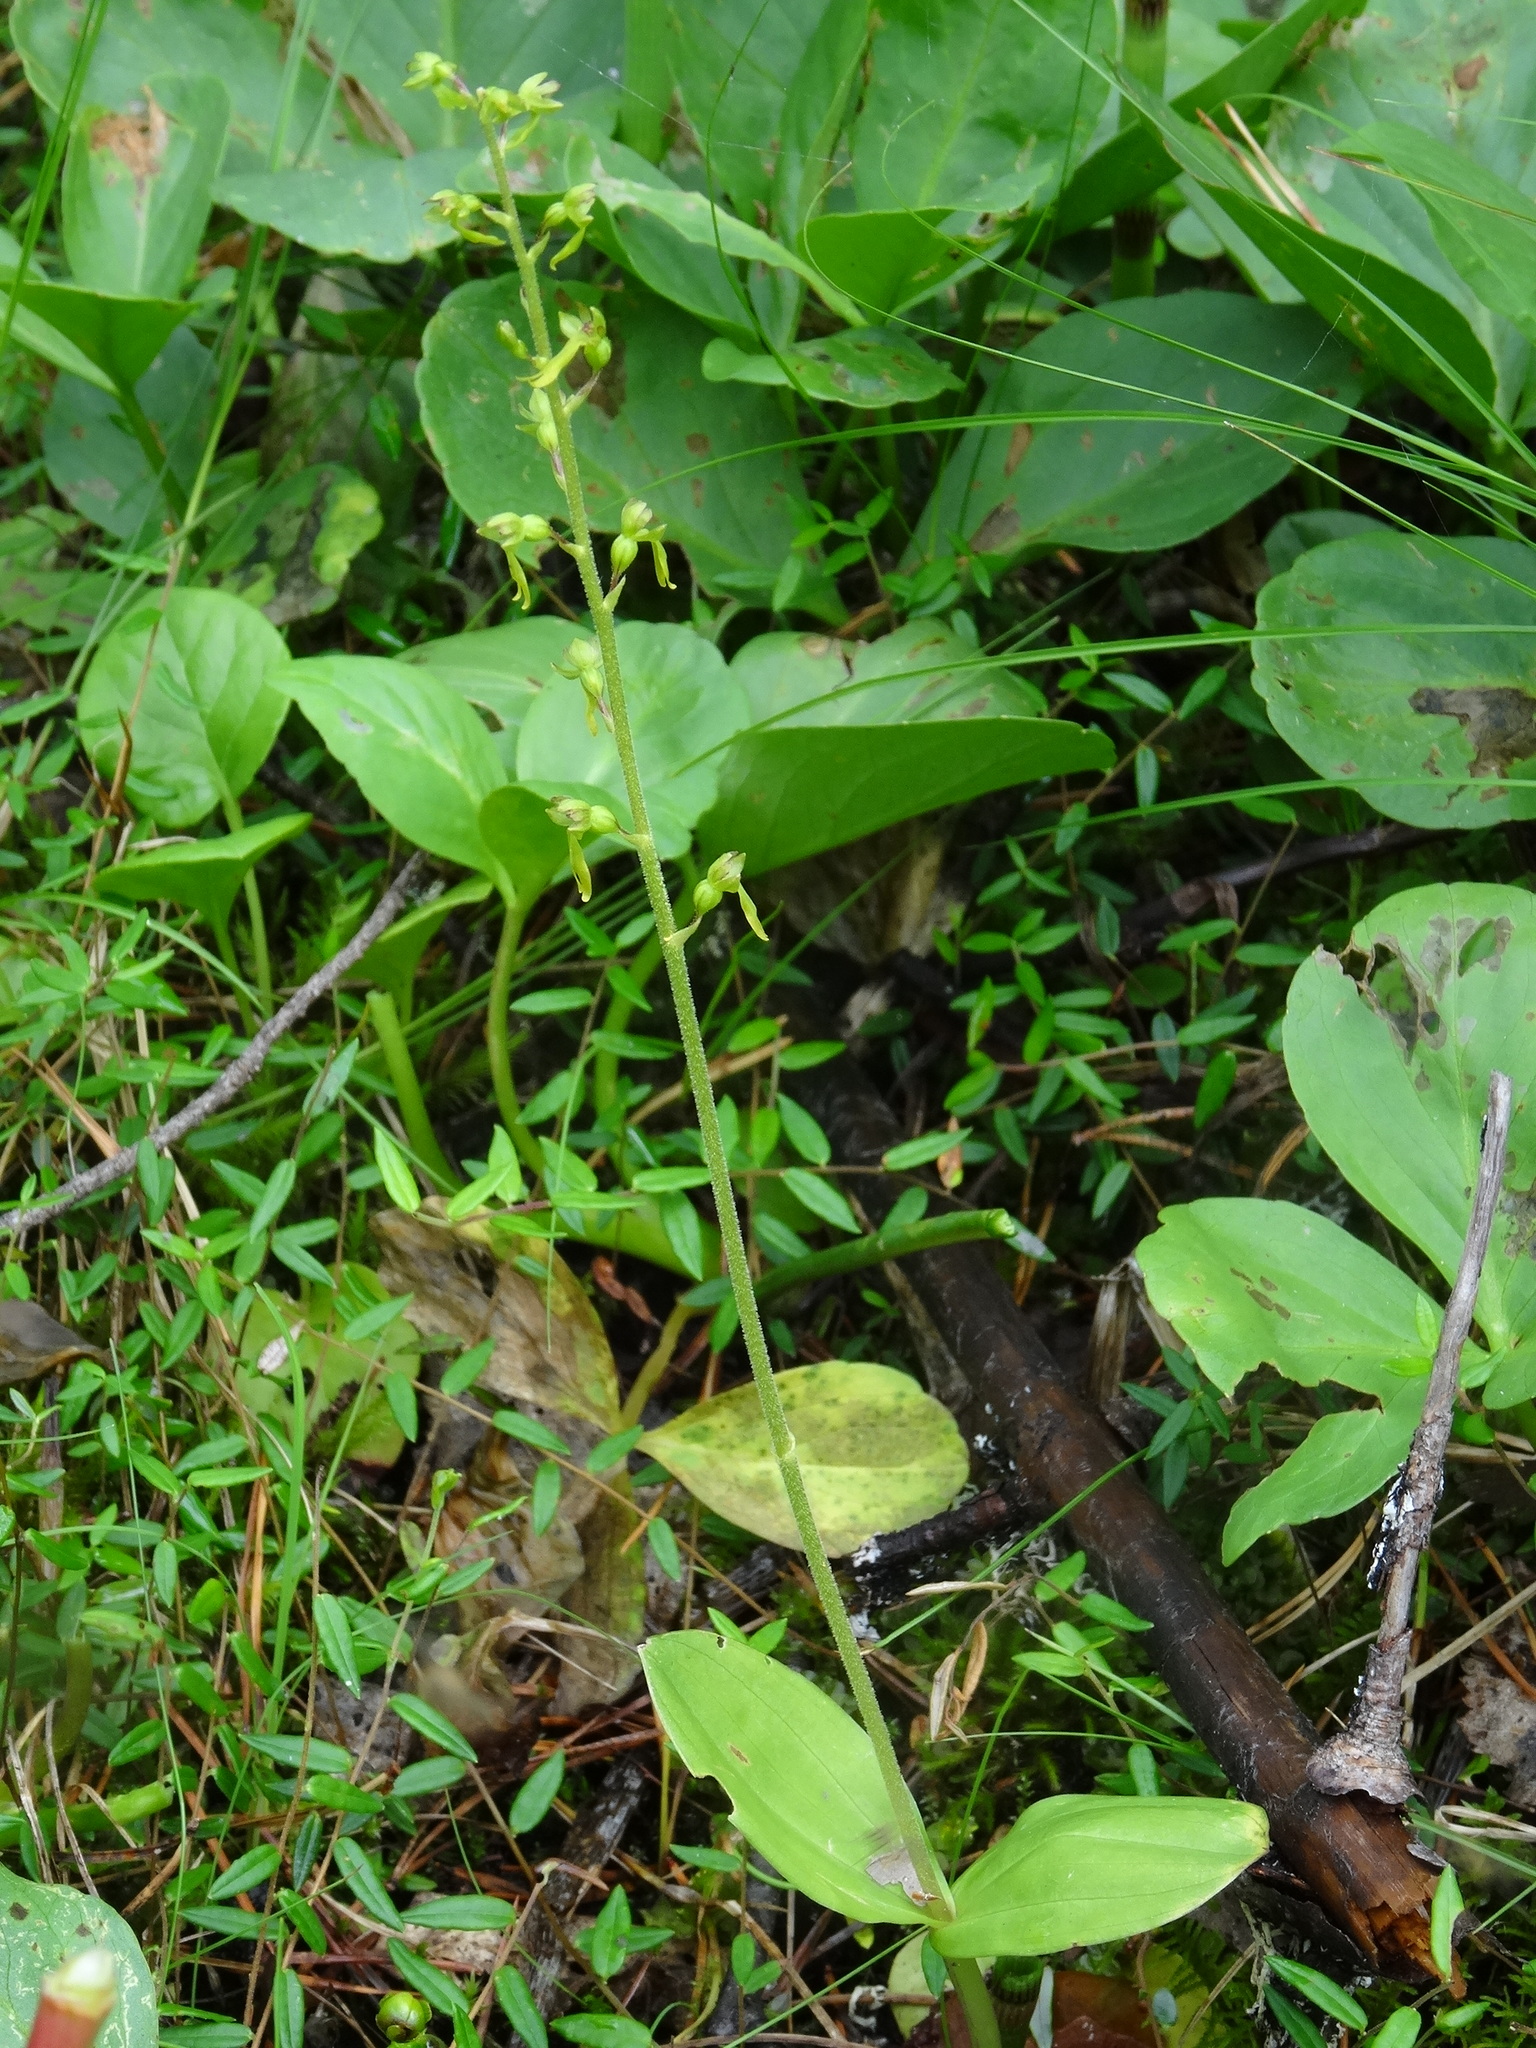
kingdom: Plantae
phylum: Tracheophyta
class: Liliopsida
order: Asparagales
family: Orchidaceae
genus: Neottia
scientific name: Neottia ovata
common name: Common twayblade
